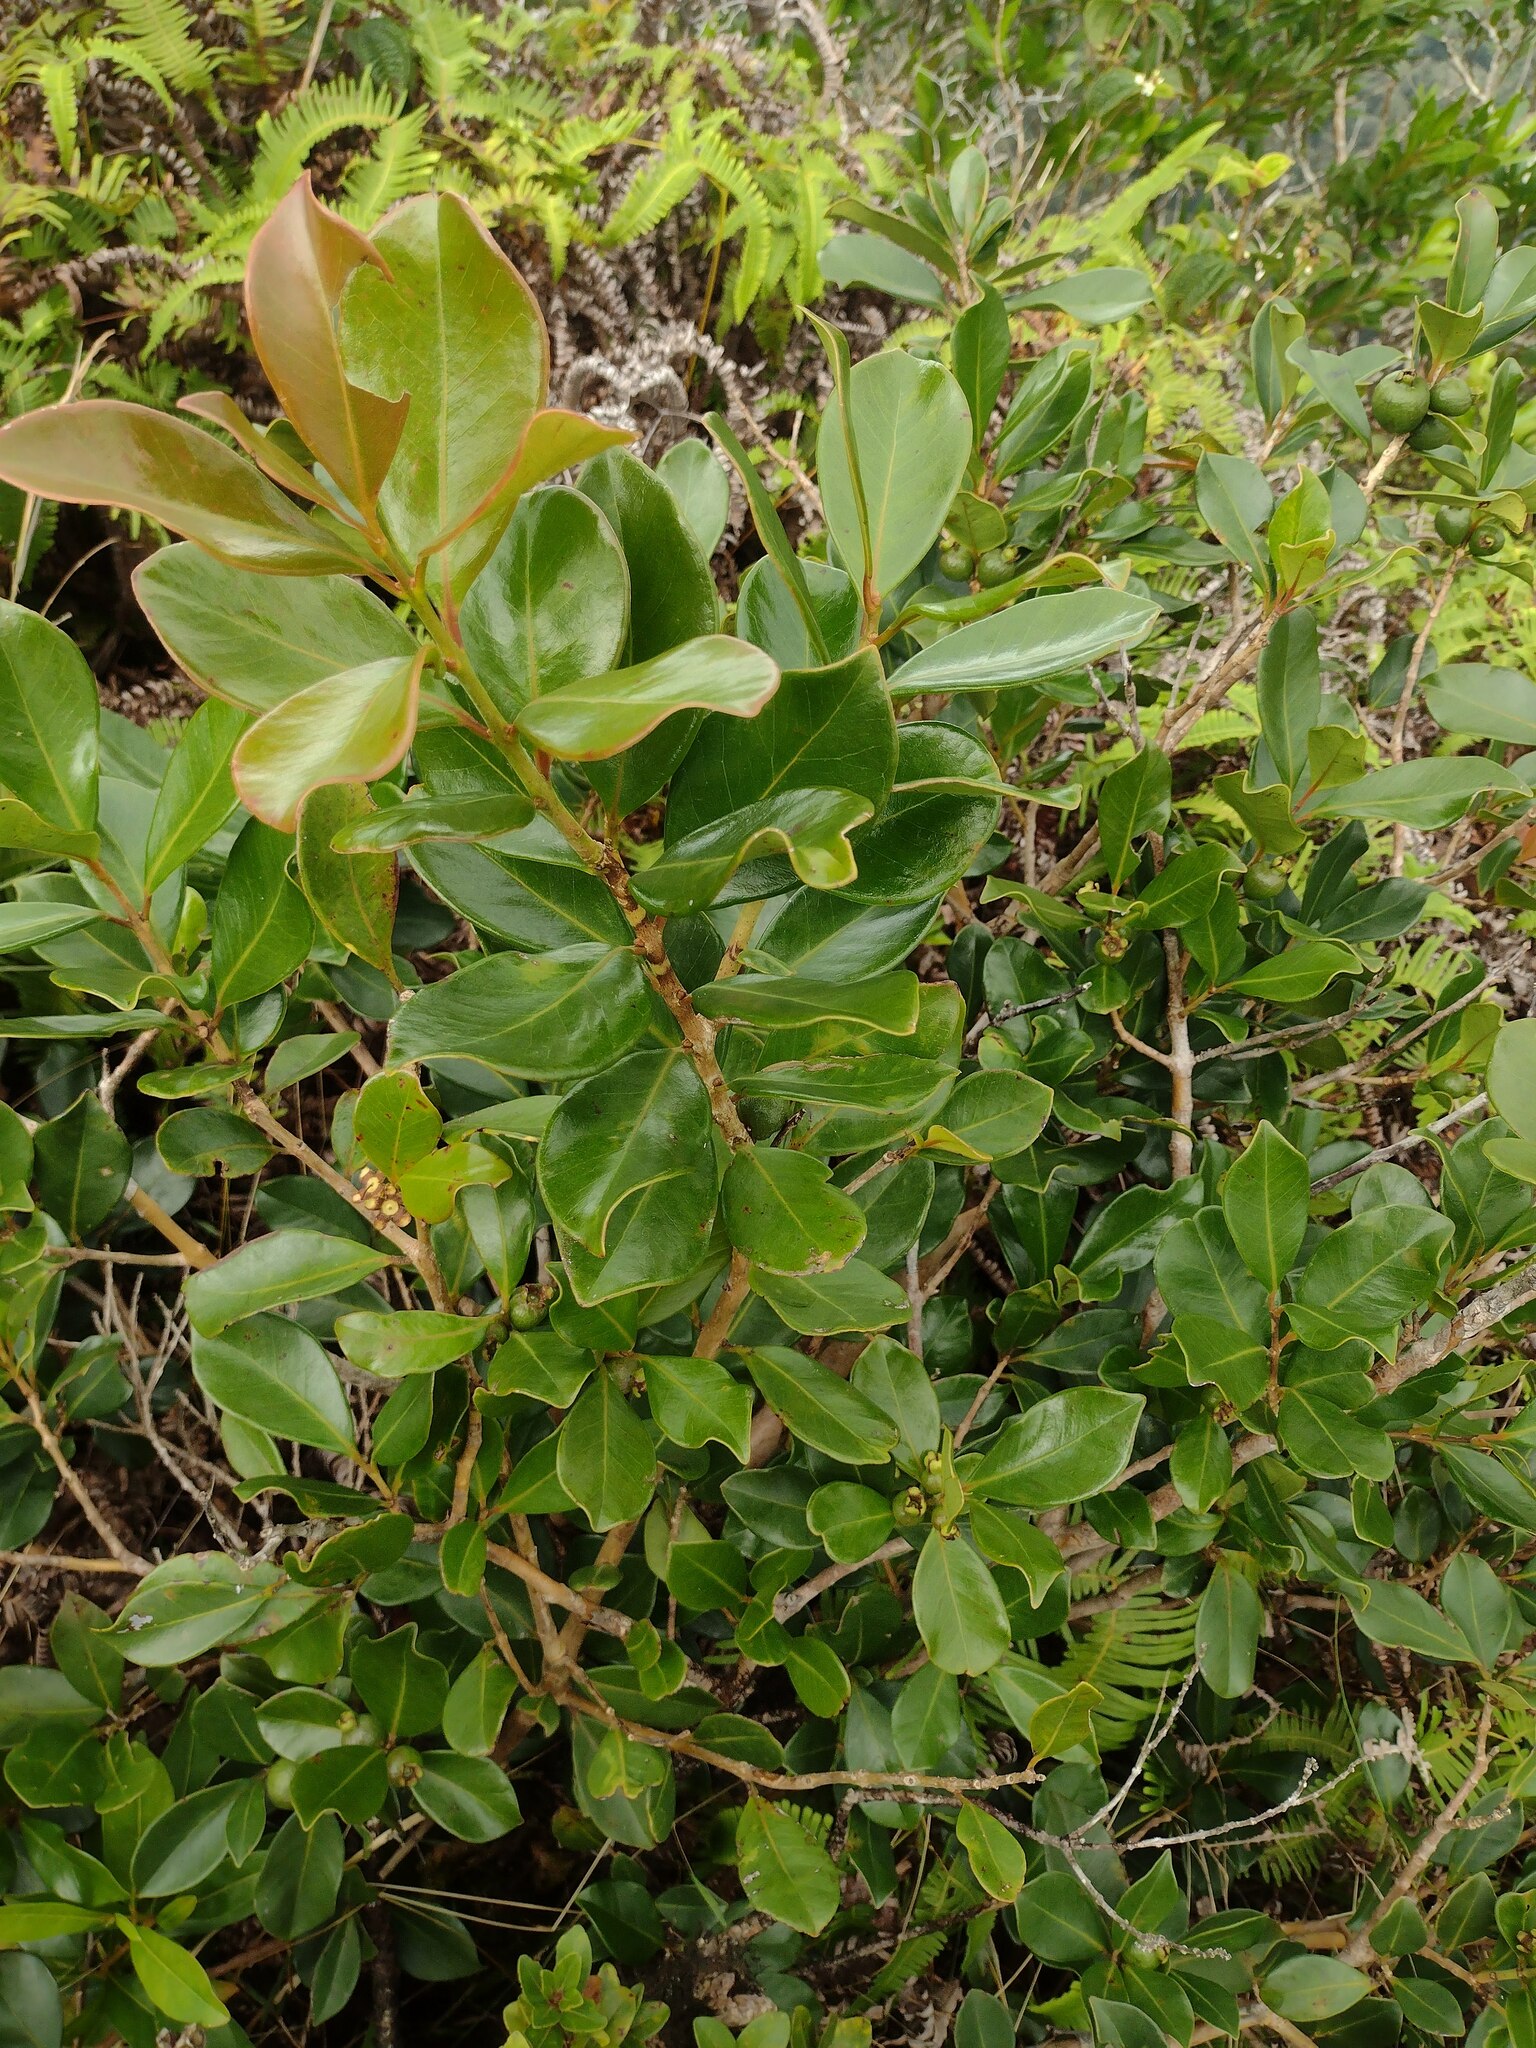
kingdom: Plantae
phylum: Tracheophyta
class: Magnoliopsida
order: Myrtales
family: Myrtaceae
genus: Psidium
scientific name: Psidium cattleianum
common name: Strawberry guava
